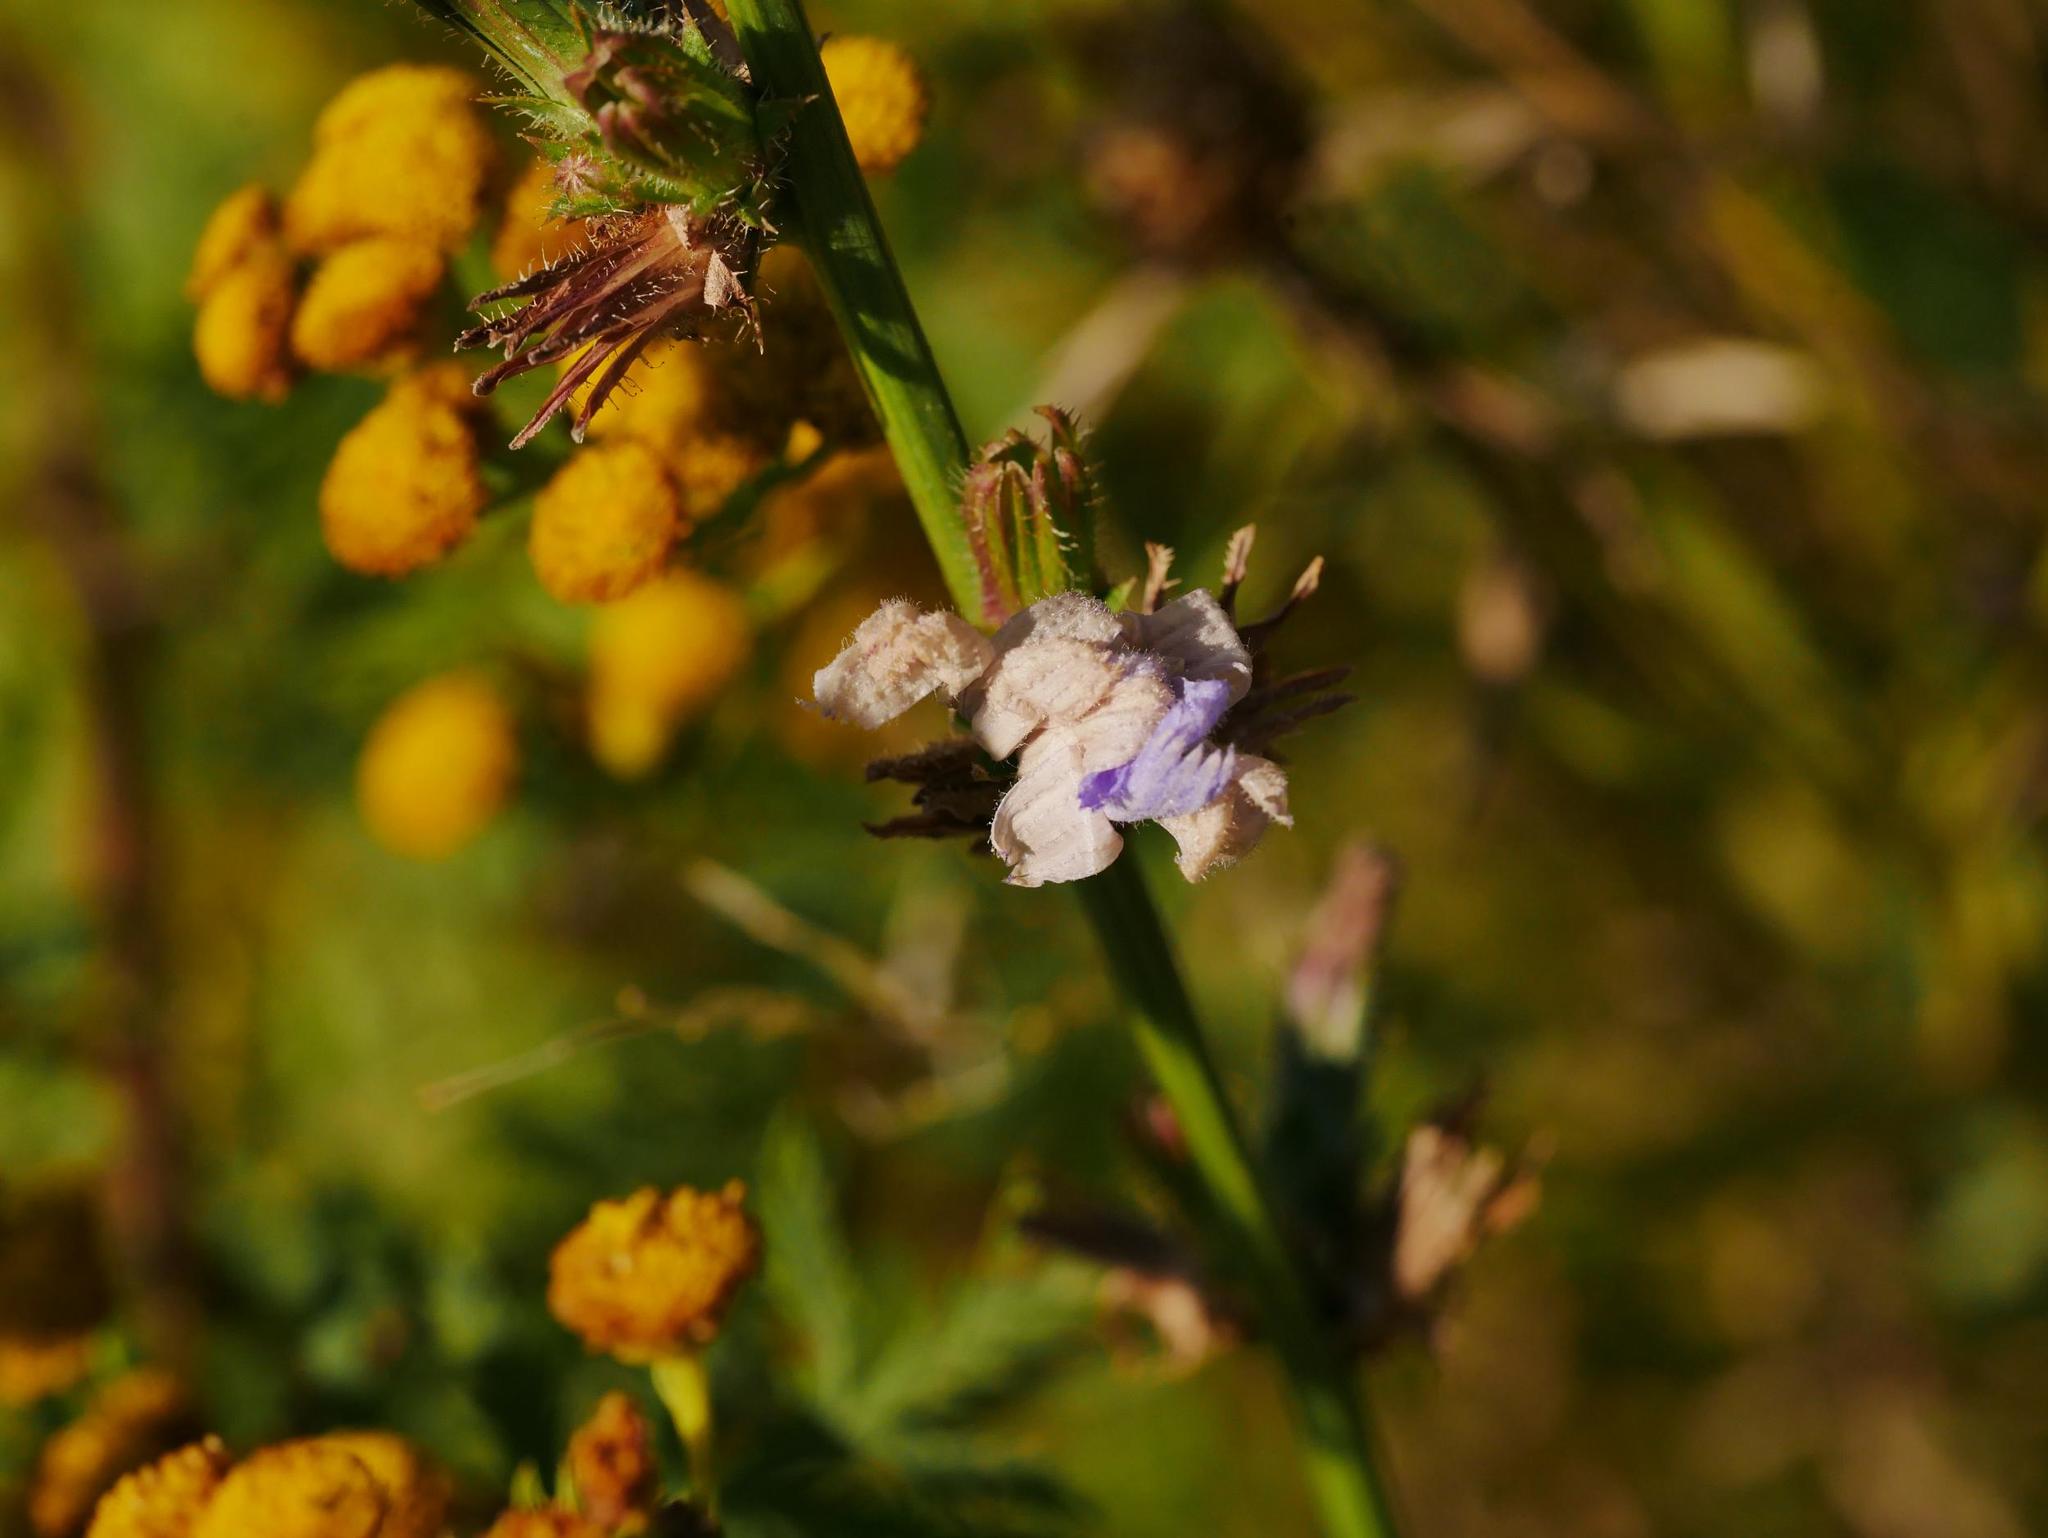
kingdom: Plantae
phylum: Tracheophyta
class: Magnoliopsida
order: Asterales
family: Asteraceae
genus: Cichorium
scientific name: Cichorium intybus
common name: Chicory
